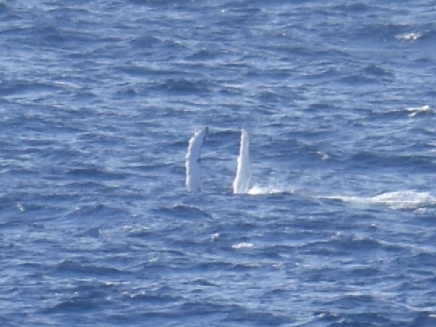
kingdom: Animalia
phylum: Chordata
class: Mammalia
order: Cetacea
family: Balaenopteridae
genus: Megaptera
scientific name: Megaptera novaeangliae
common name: Humpback whale
